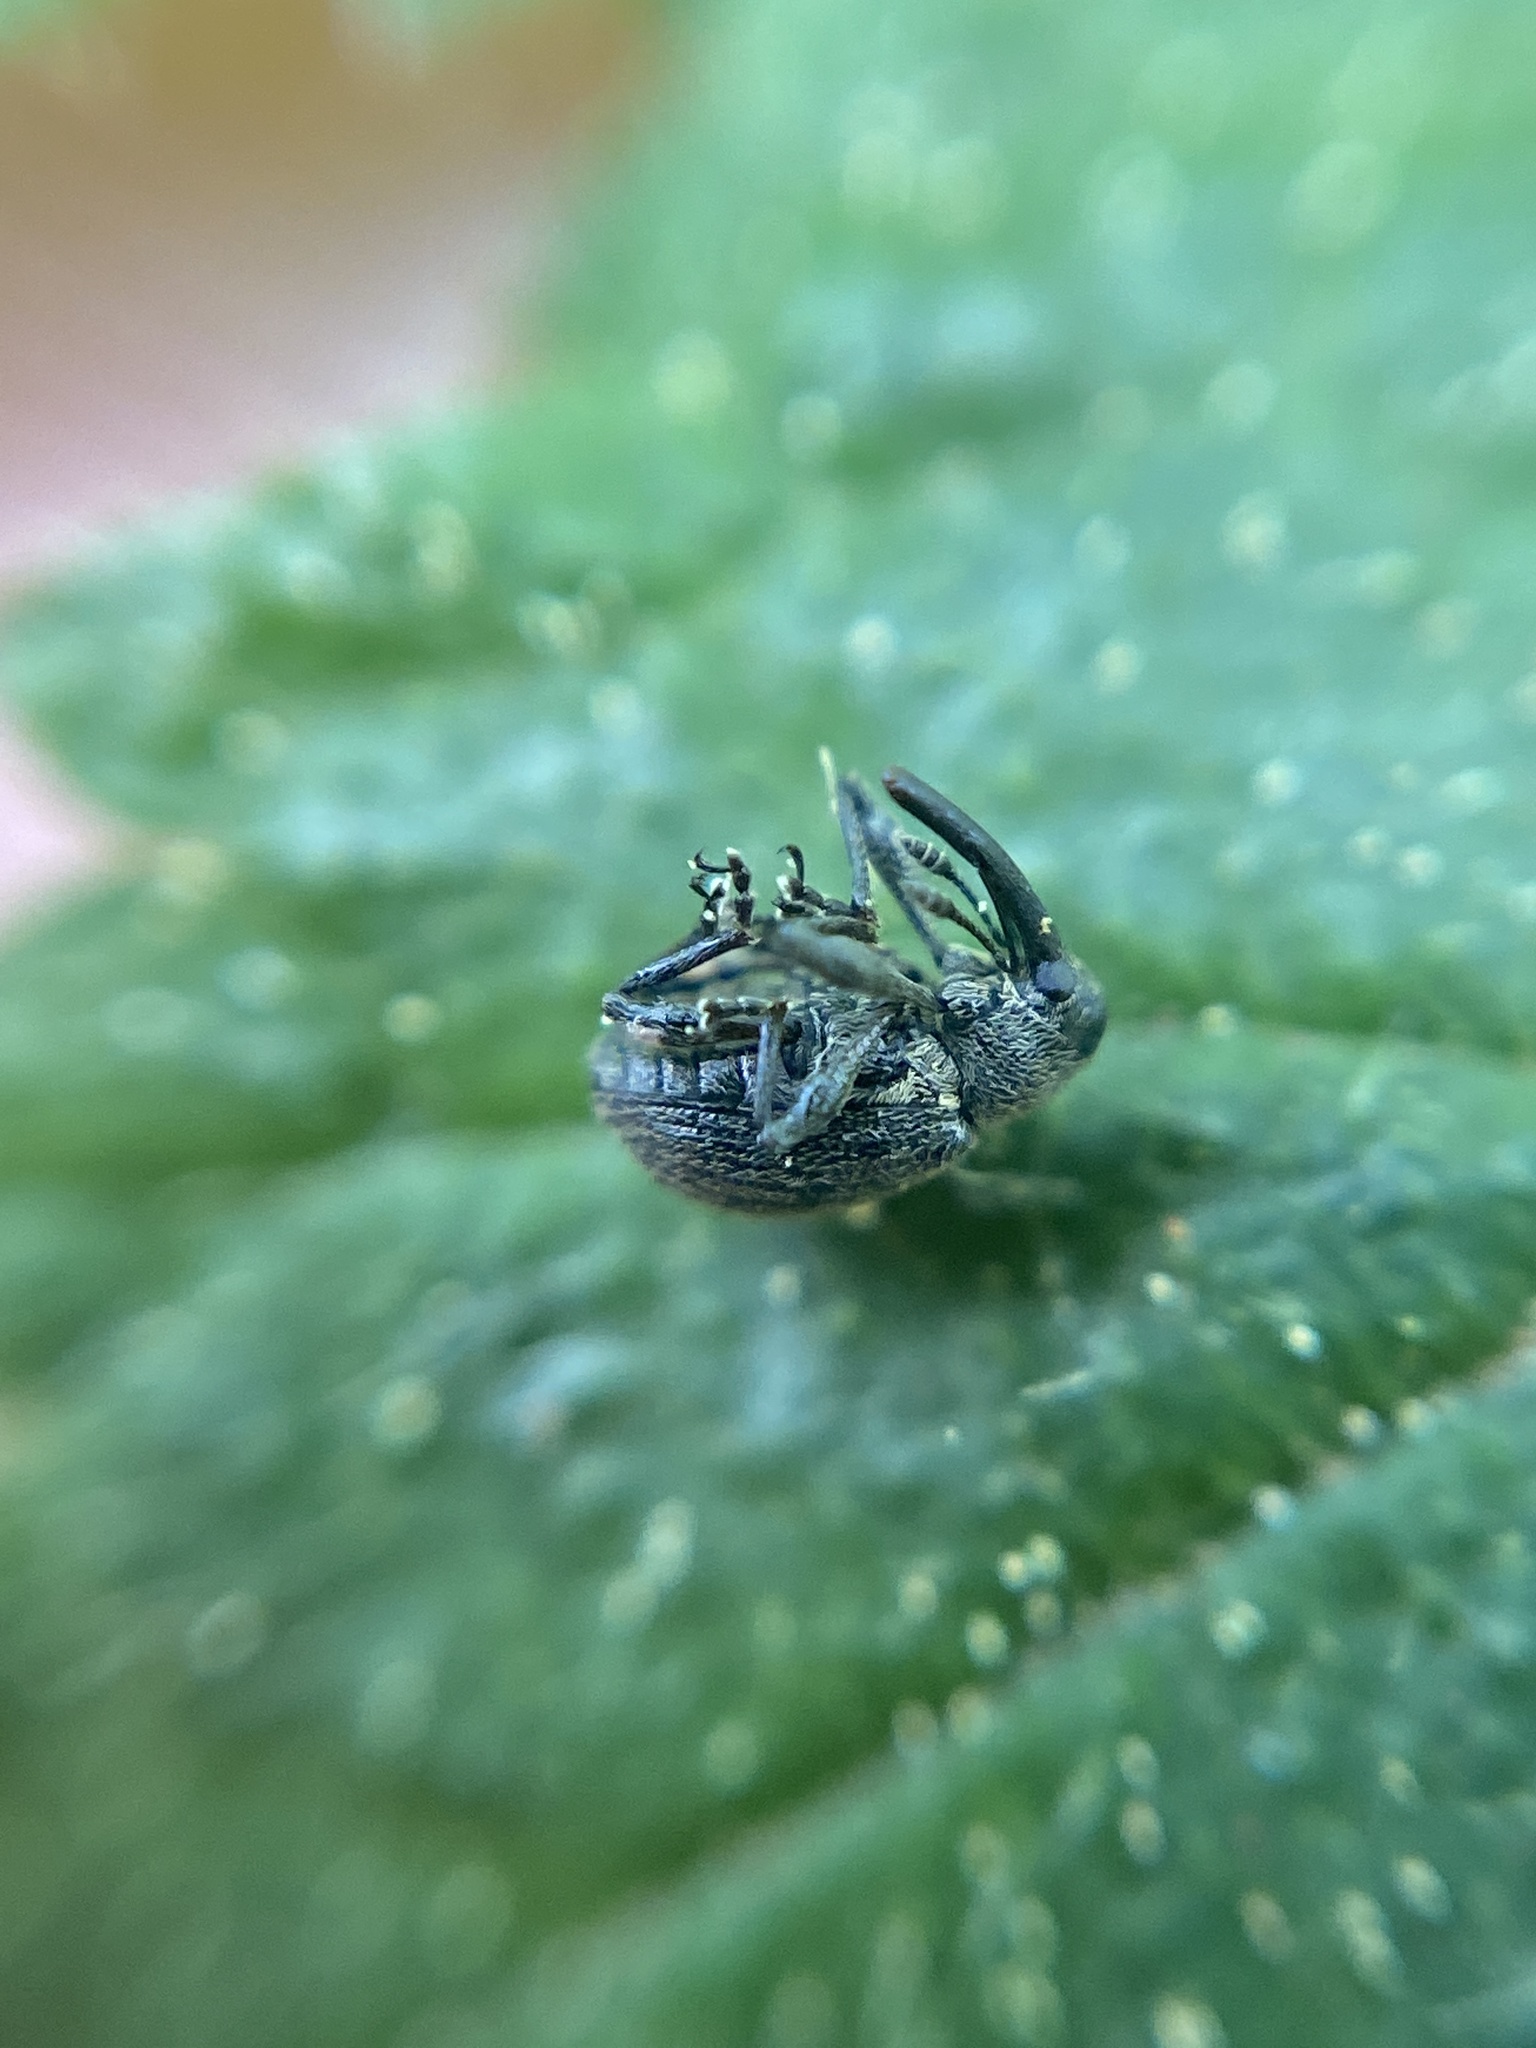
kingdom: Animalia
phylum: Arthropoda
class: Insecta
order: Coleoptera
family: Curculionidae
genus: Anthonomus
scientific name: Anthonomus rubi
